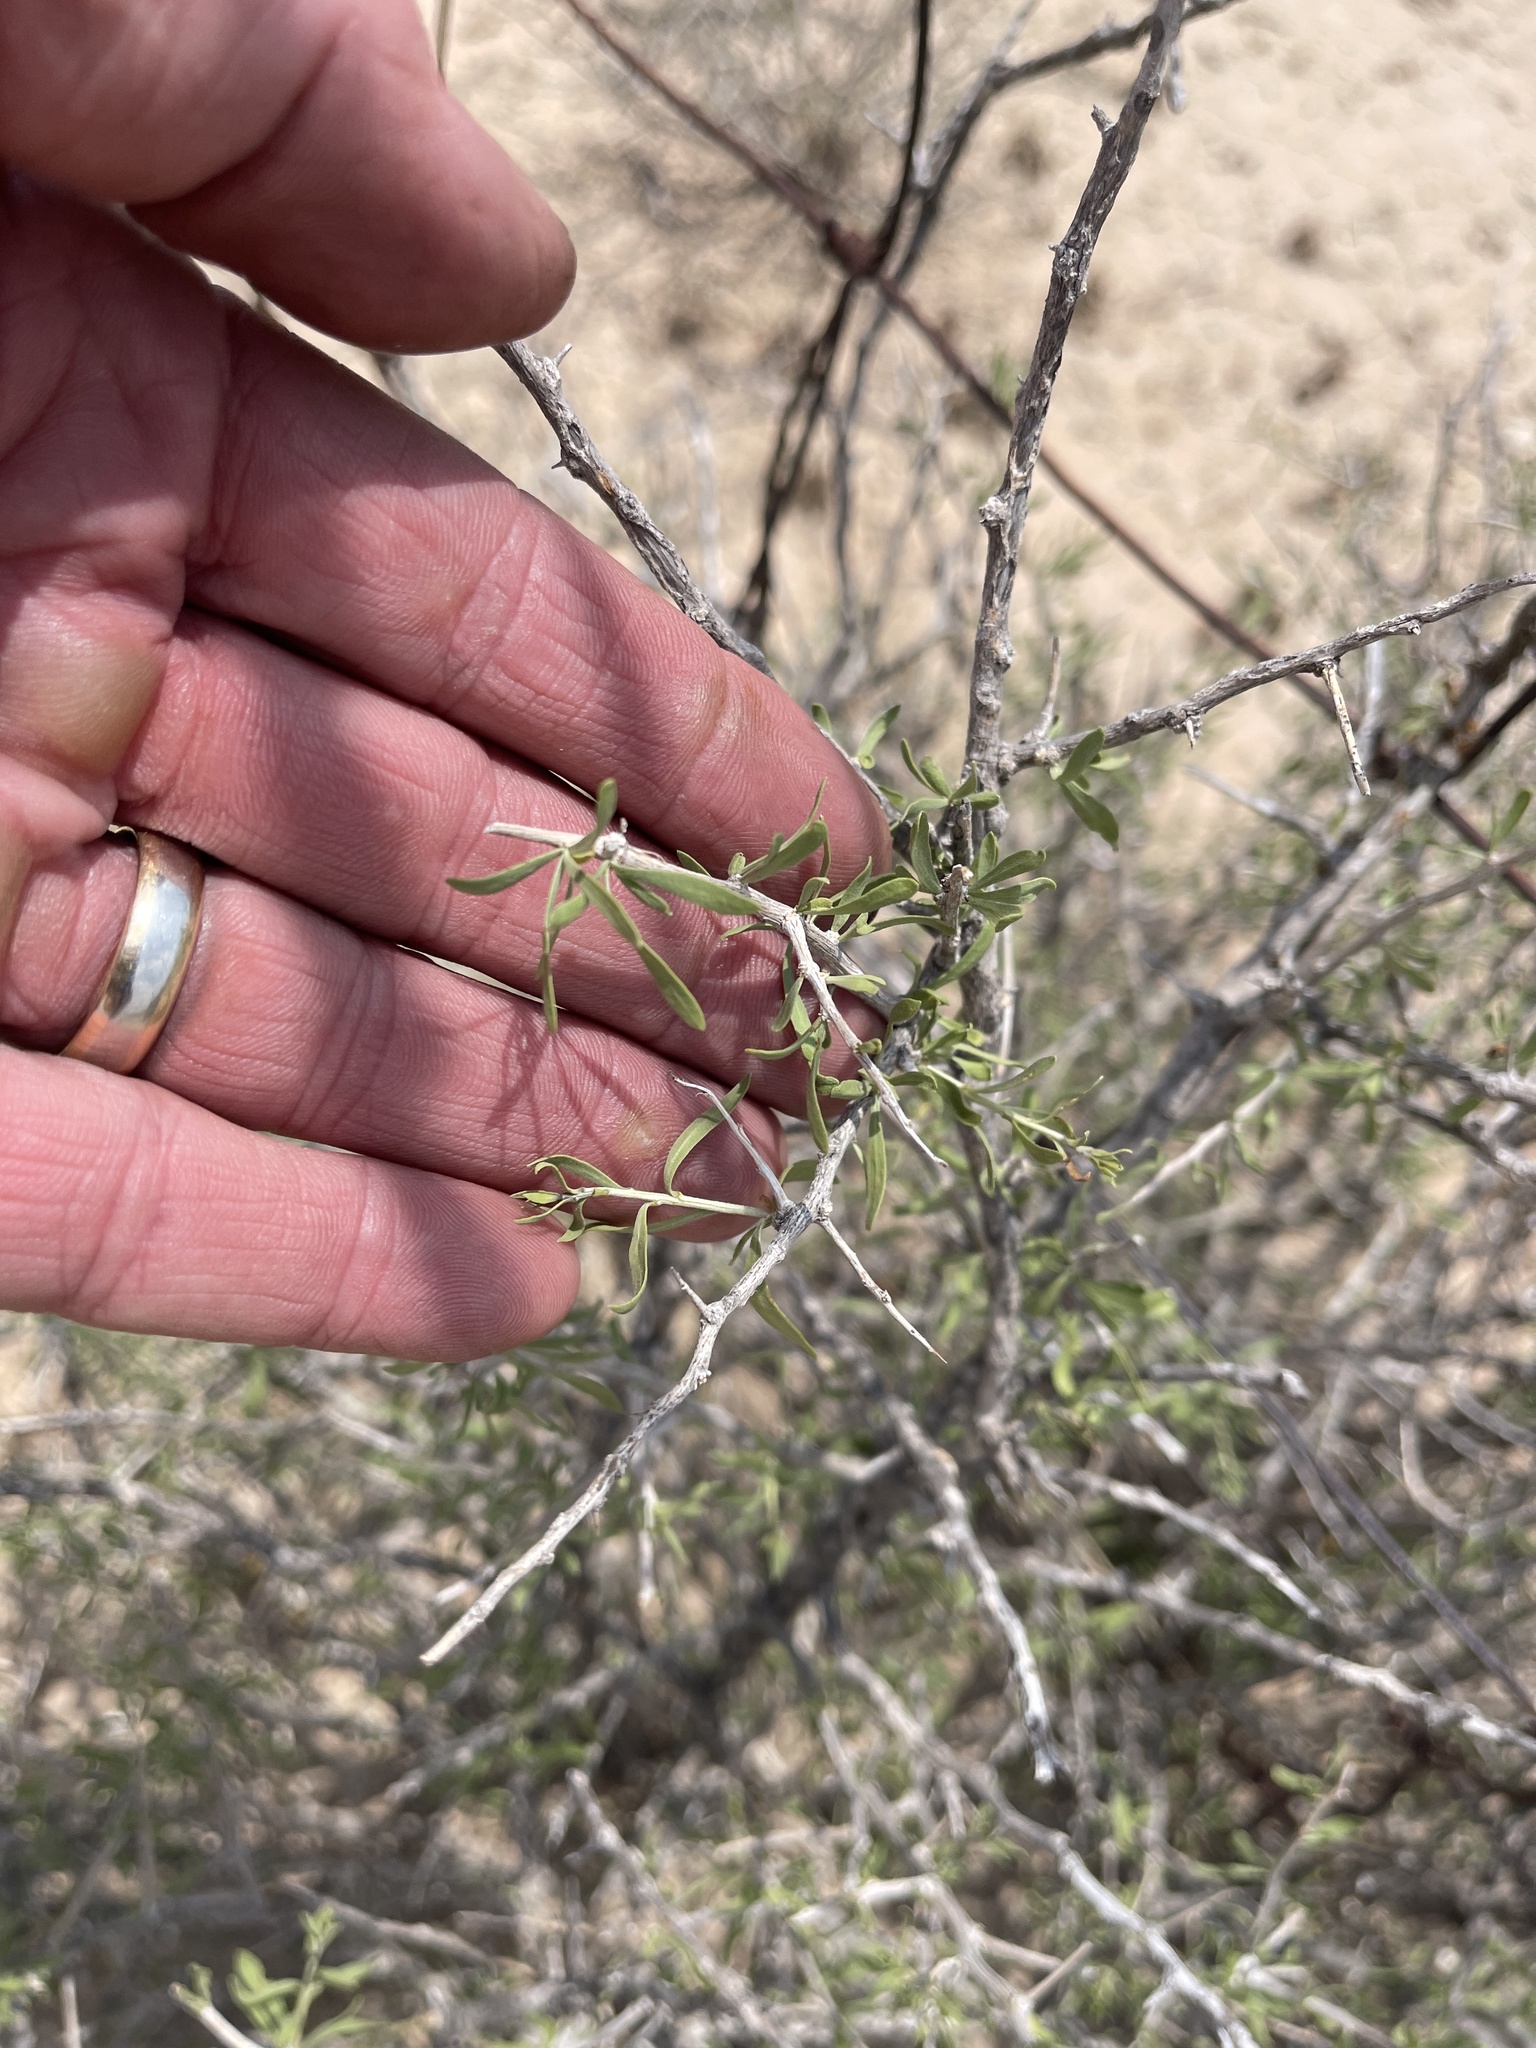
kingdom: Plantae
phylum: Tracheophyta
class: Magnoliopsida
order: Solanales
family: Solanaceae
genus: Lycium
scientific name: Lycium berlandieri
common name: Berlandier wolfberry
